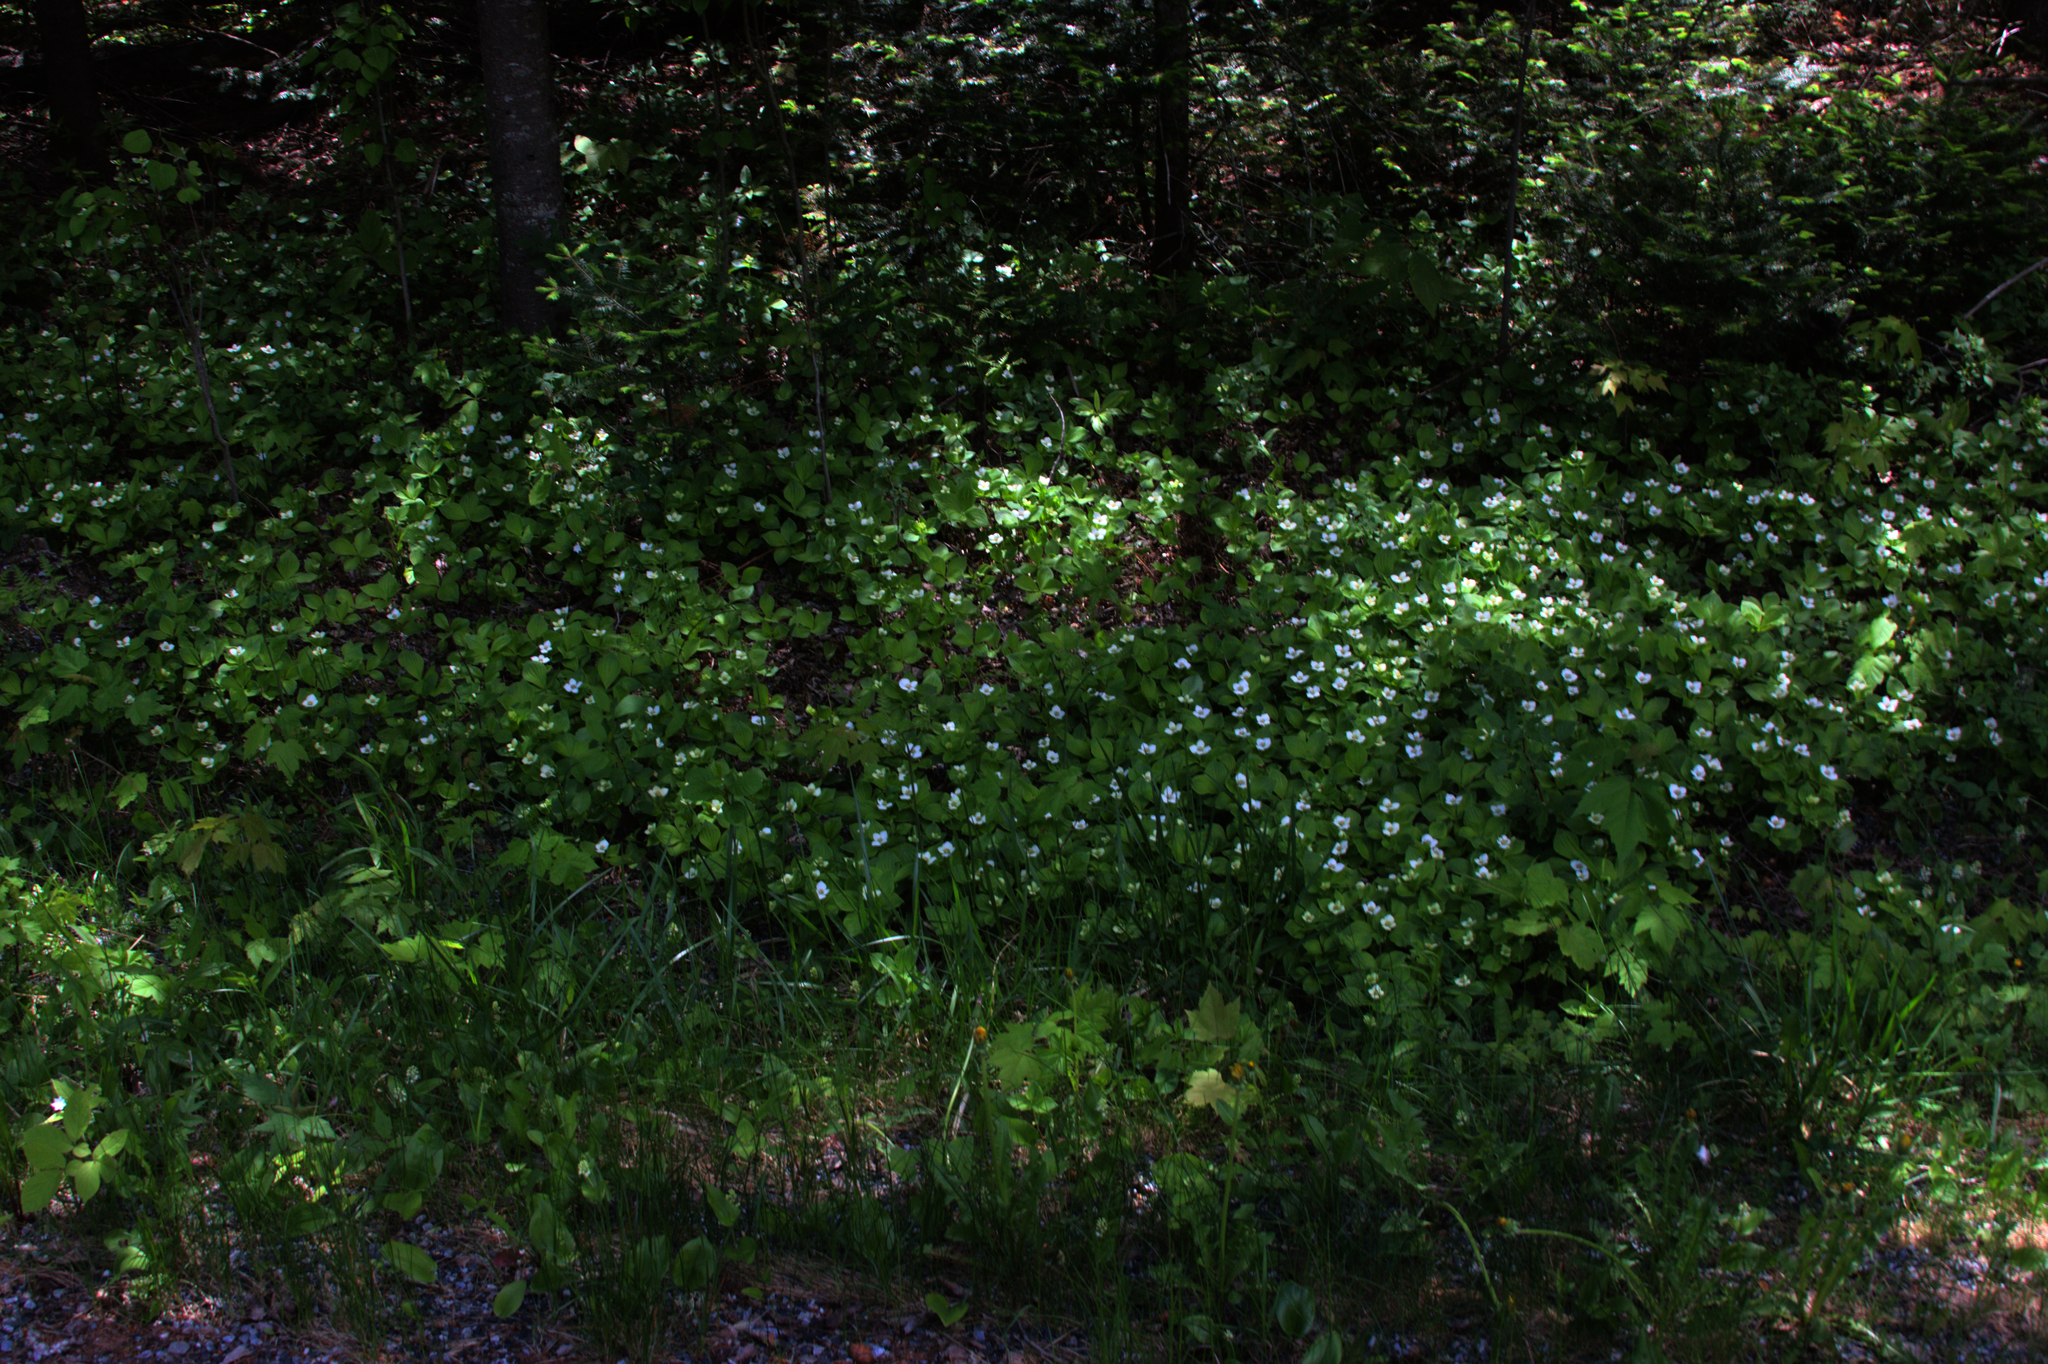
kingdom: Plantae
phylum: Tracheophyta
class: Magnoliopsida
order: Cornales
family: Cornaceae
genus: Cornus
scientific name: Cornus canadensis
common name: Creeping dogwood
